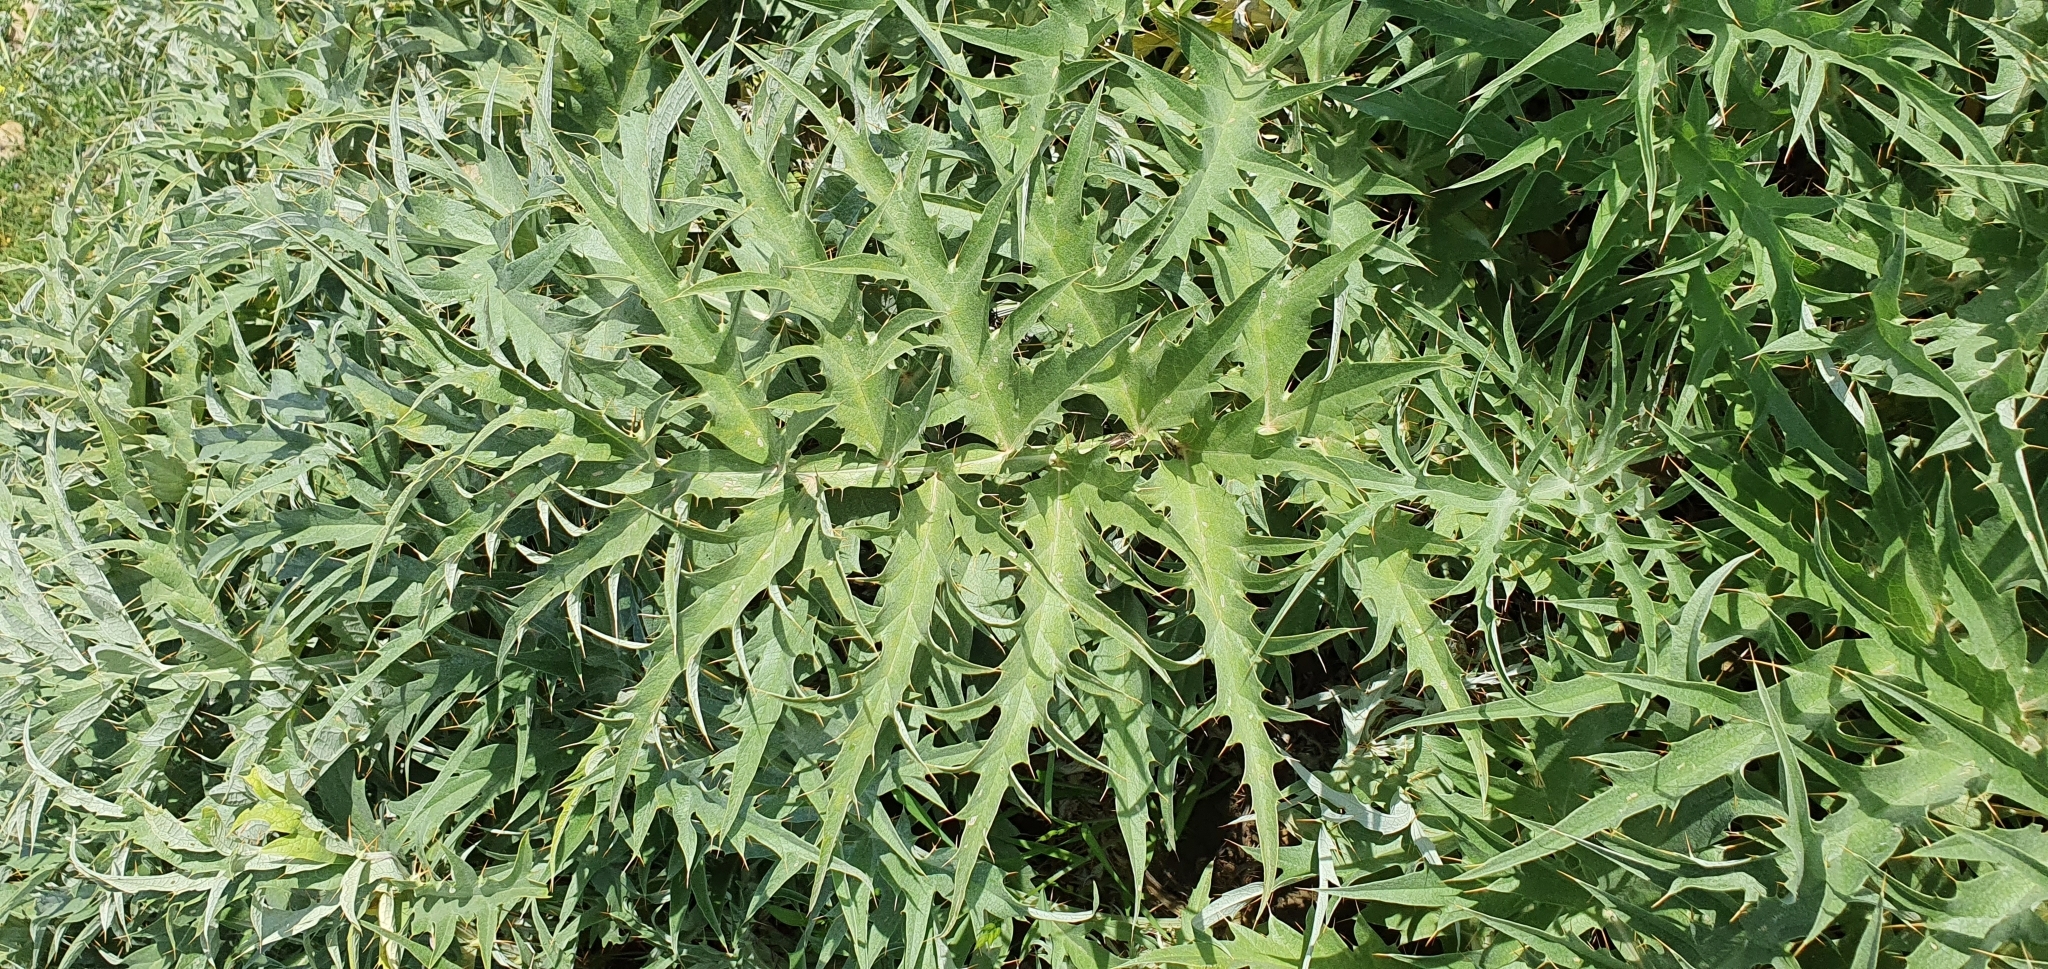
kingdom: Plantae
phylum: Tracheophyta
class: Magnoliopsida
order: Asterales
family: Asteraceae
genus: Cynara
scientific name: Cynara cardunculus
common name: Globe artichoke
